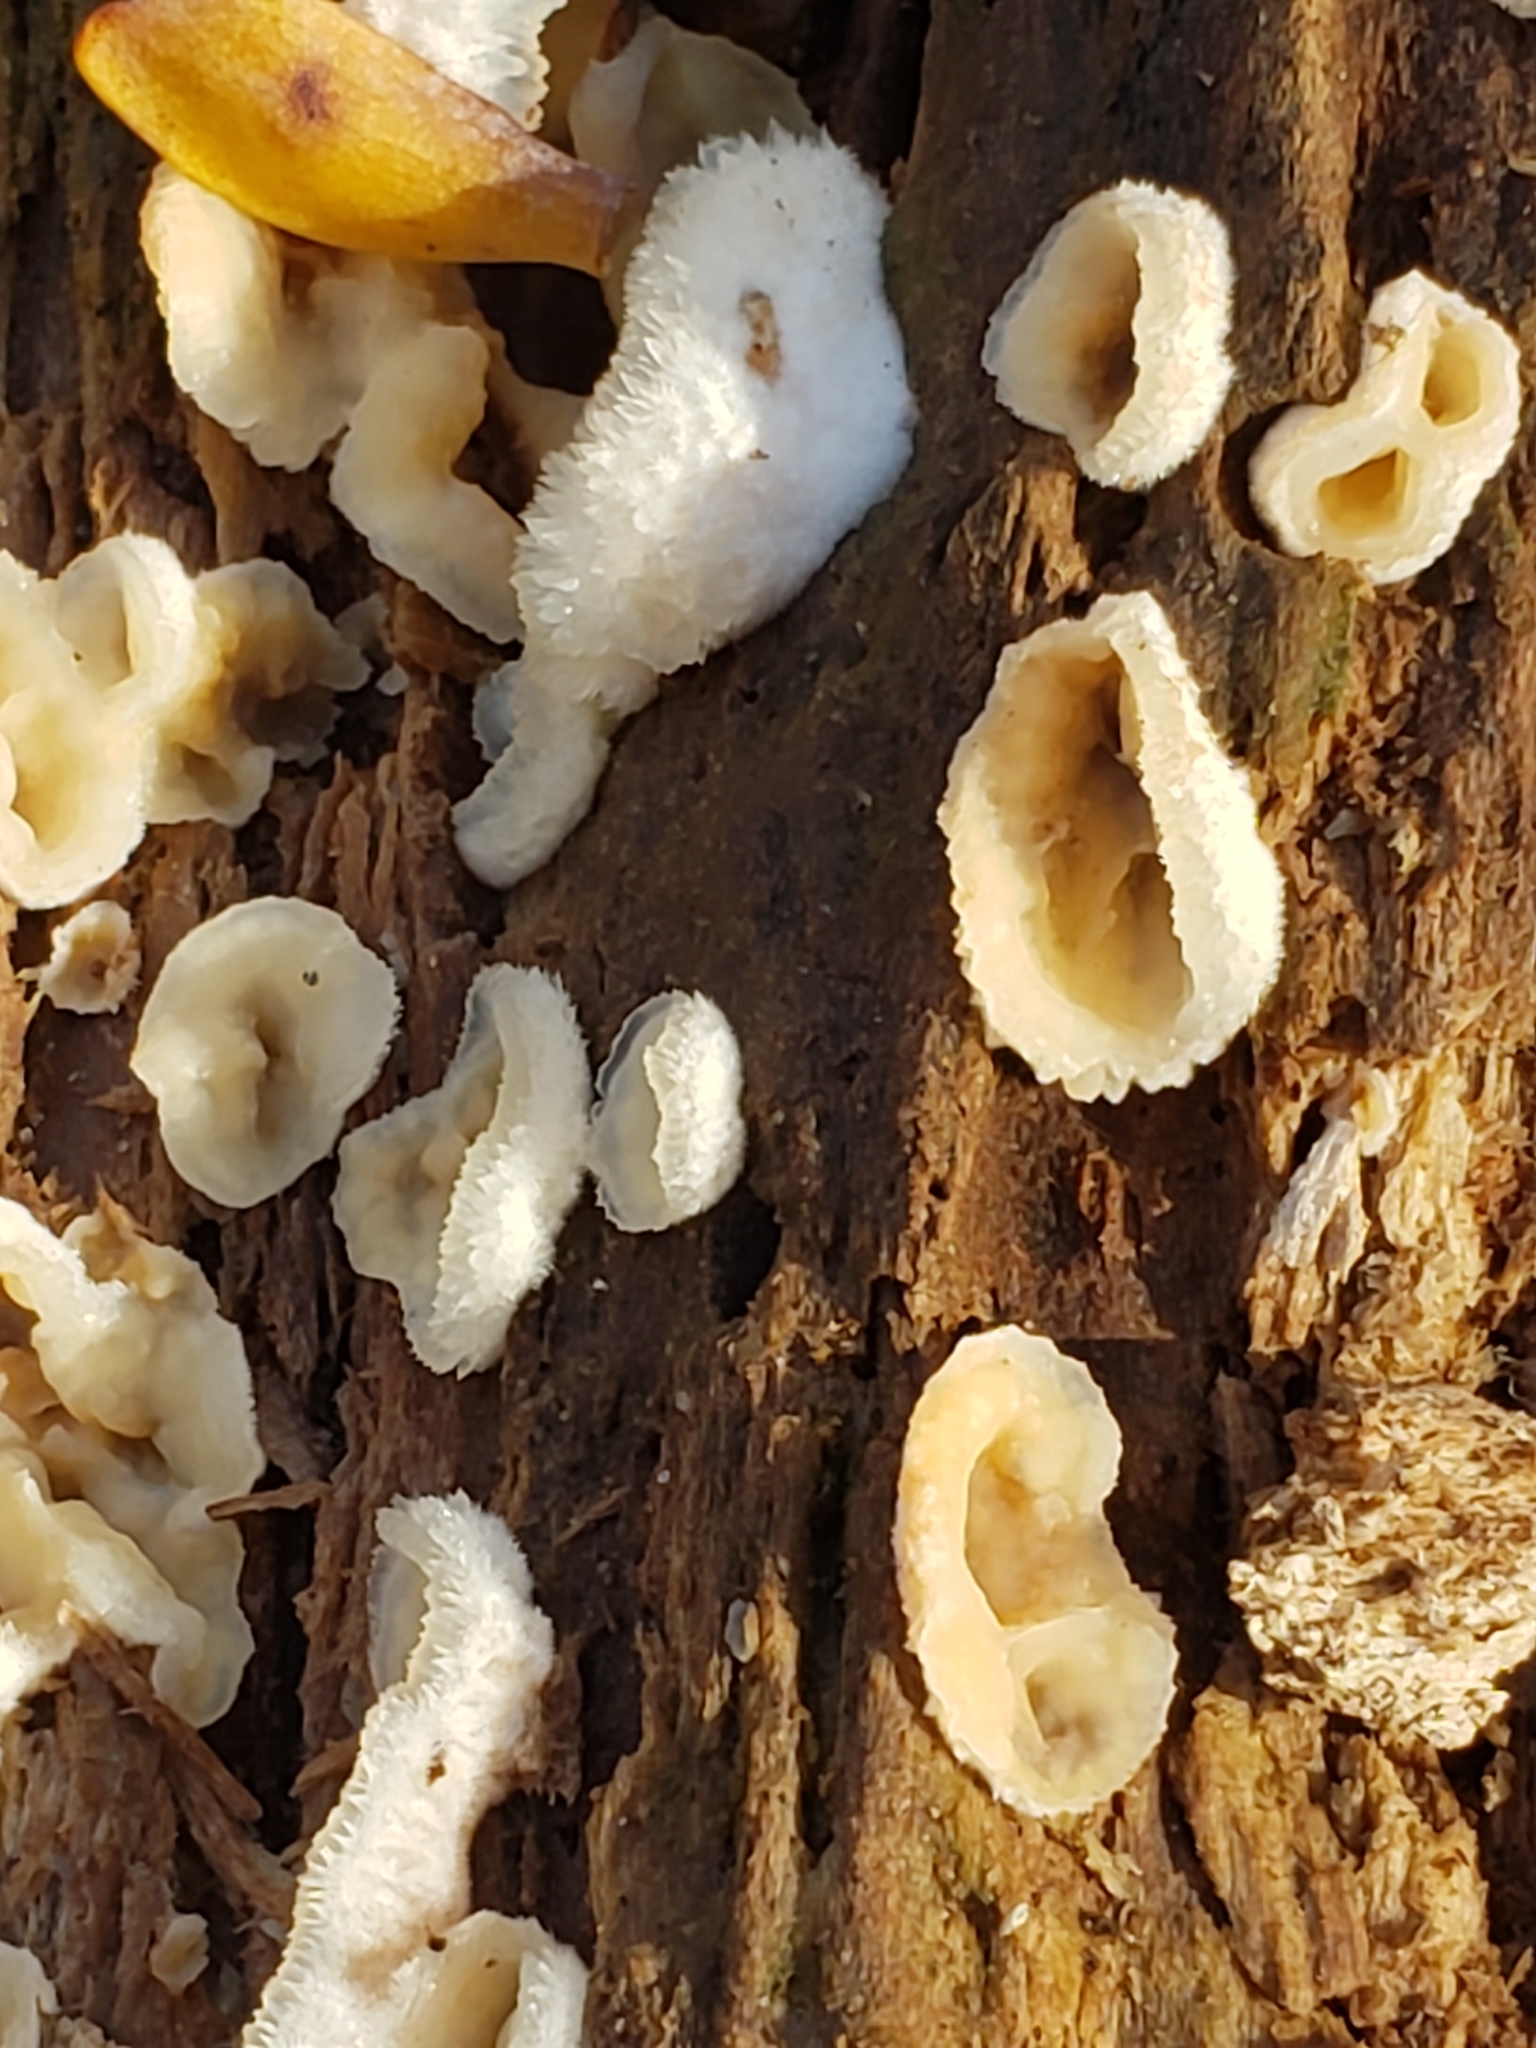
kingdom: Fungi
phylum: Basidiomycota
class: Agaricomycetes
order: Polyporales
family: Meruliaceae
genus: Phlebia
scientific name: Phlebia tremellosa
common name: Jelly rot
